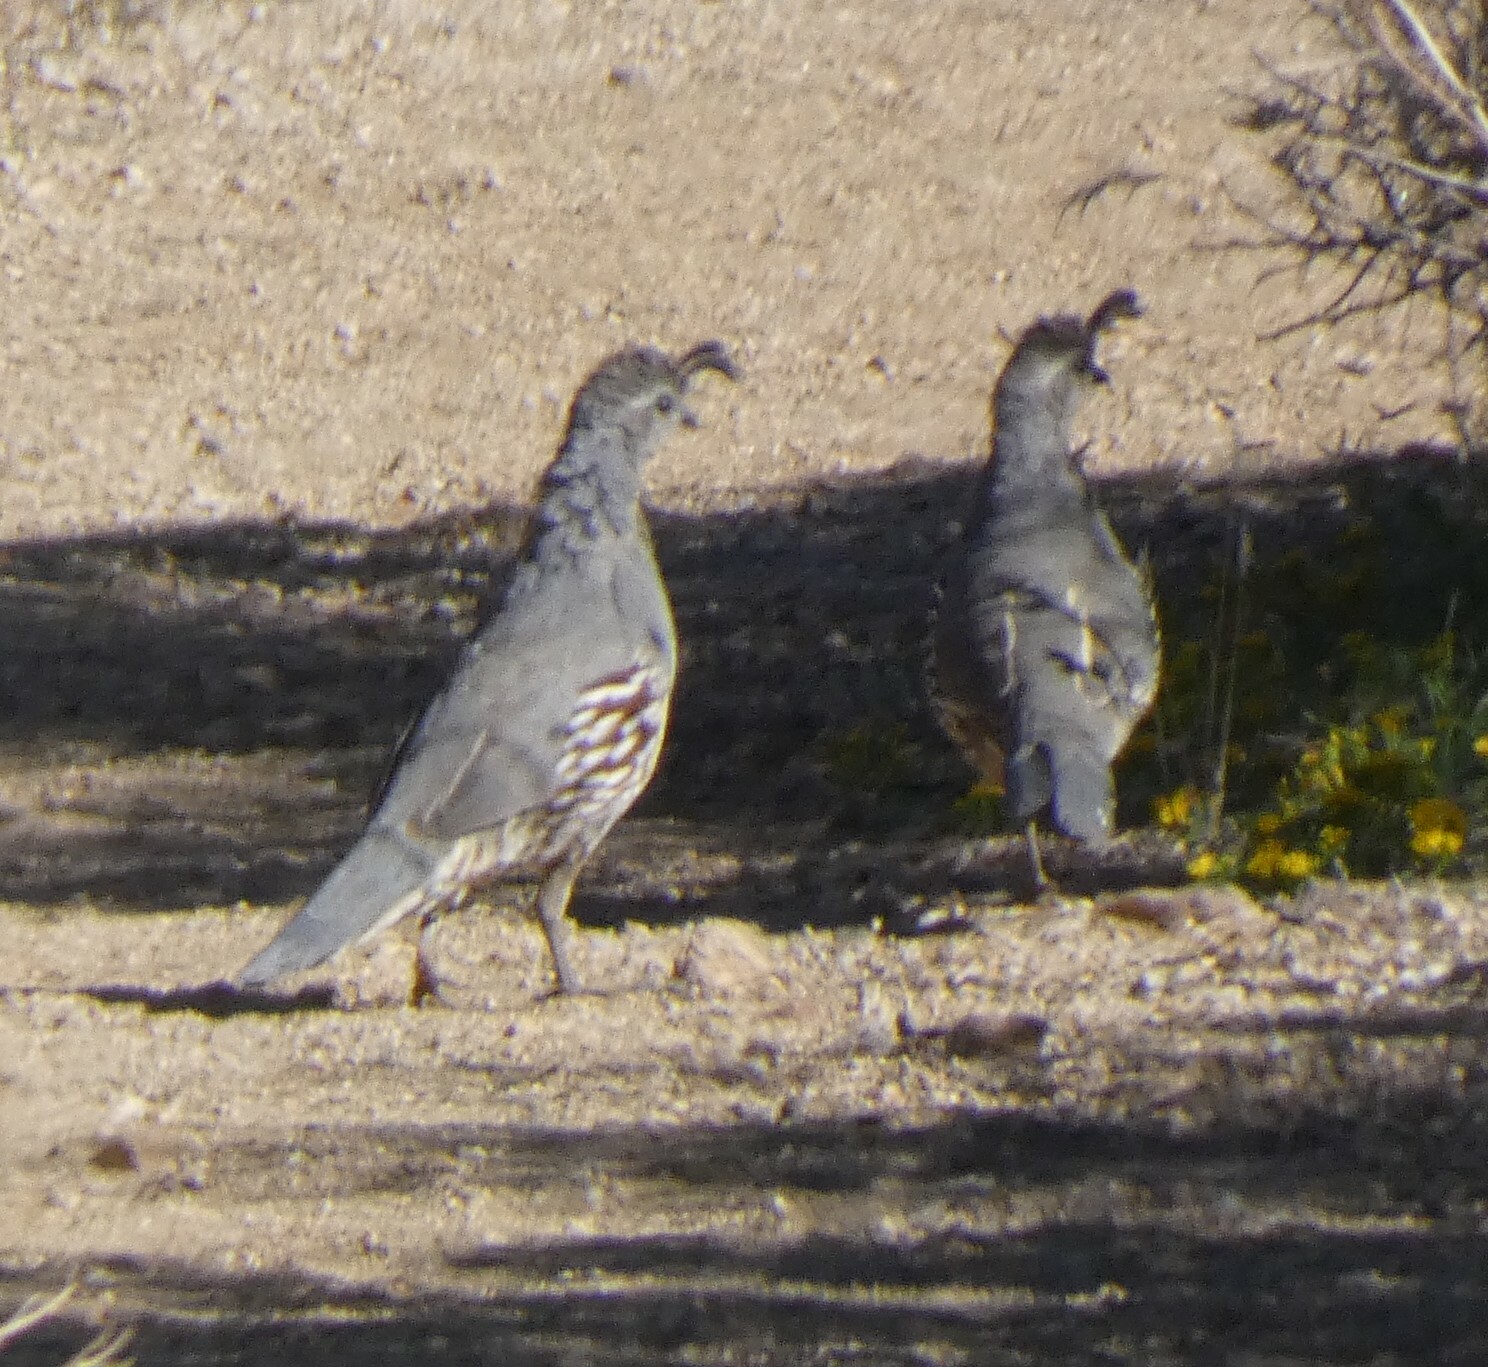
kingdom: Animalia
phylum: Chordata
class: Aves
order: Galliformes
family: Odontophoridae
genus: Callipepla
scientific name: Callipepla gambelii
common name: Gambel's quail
